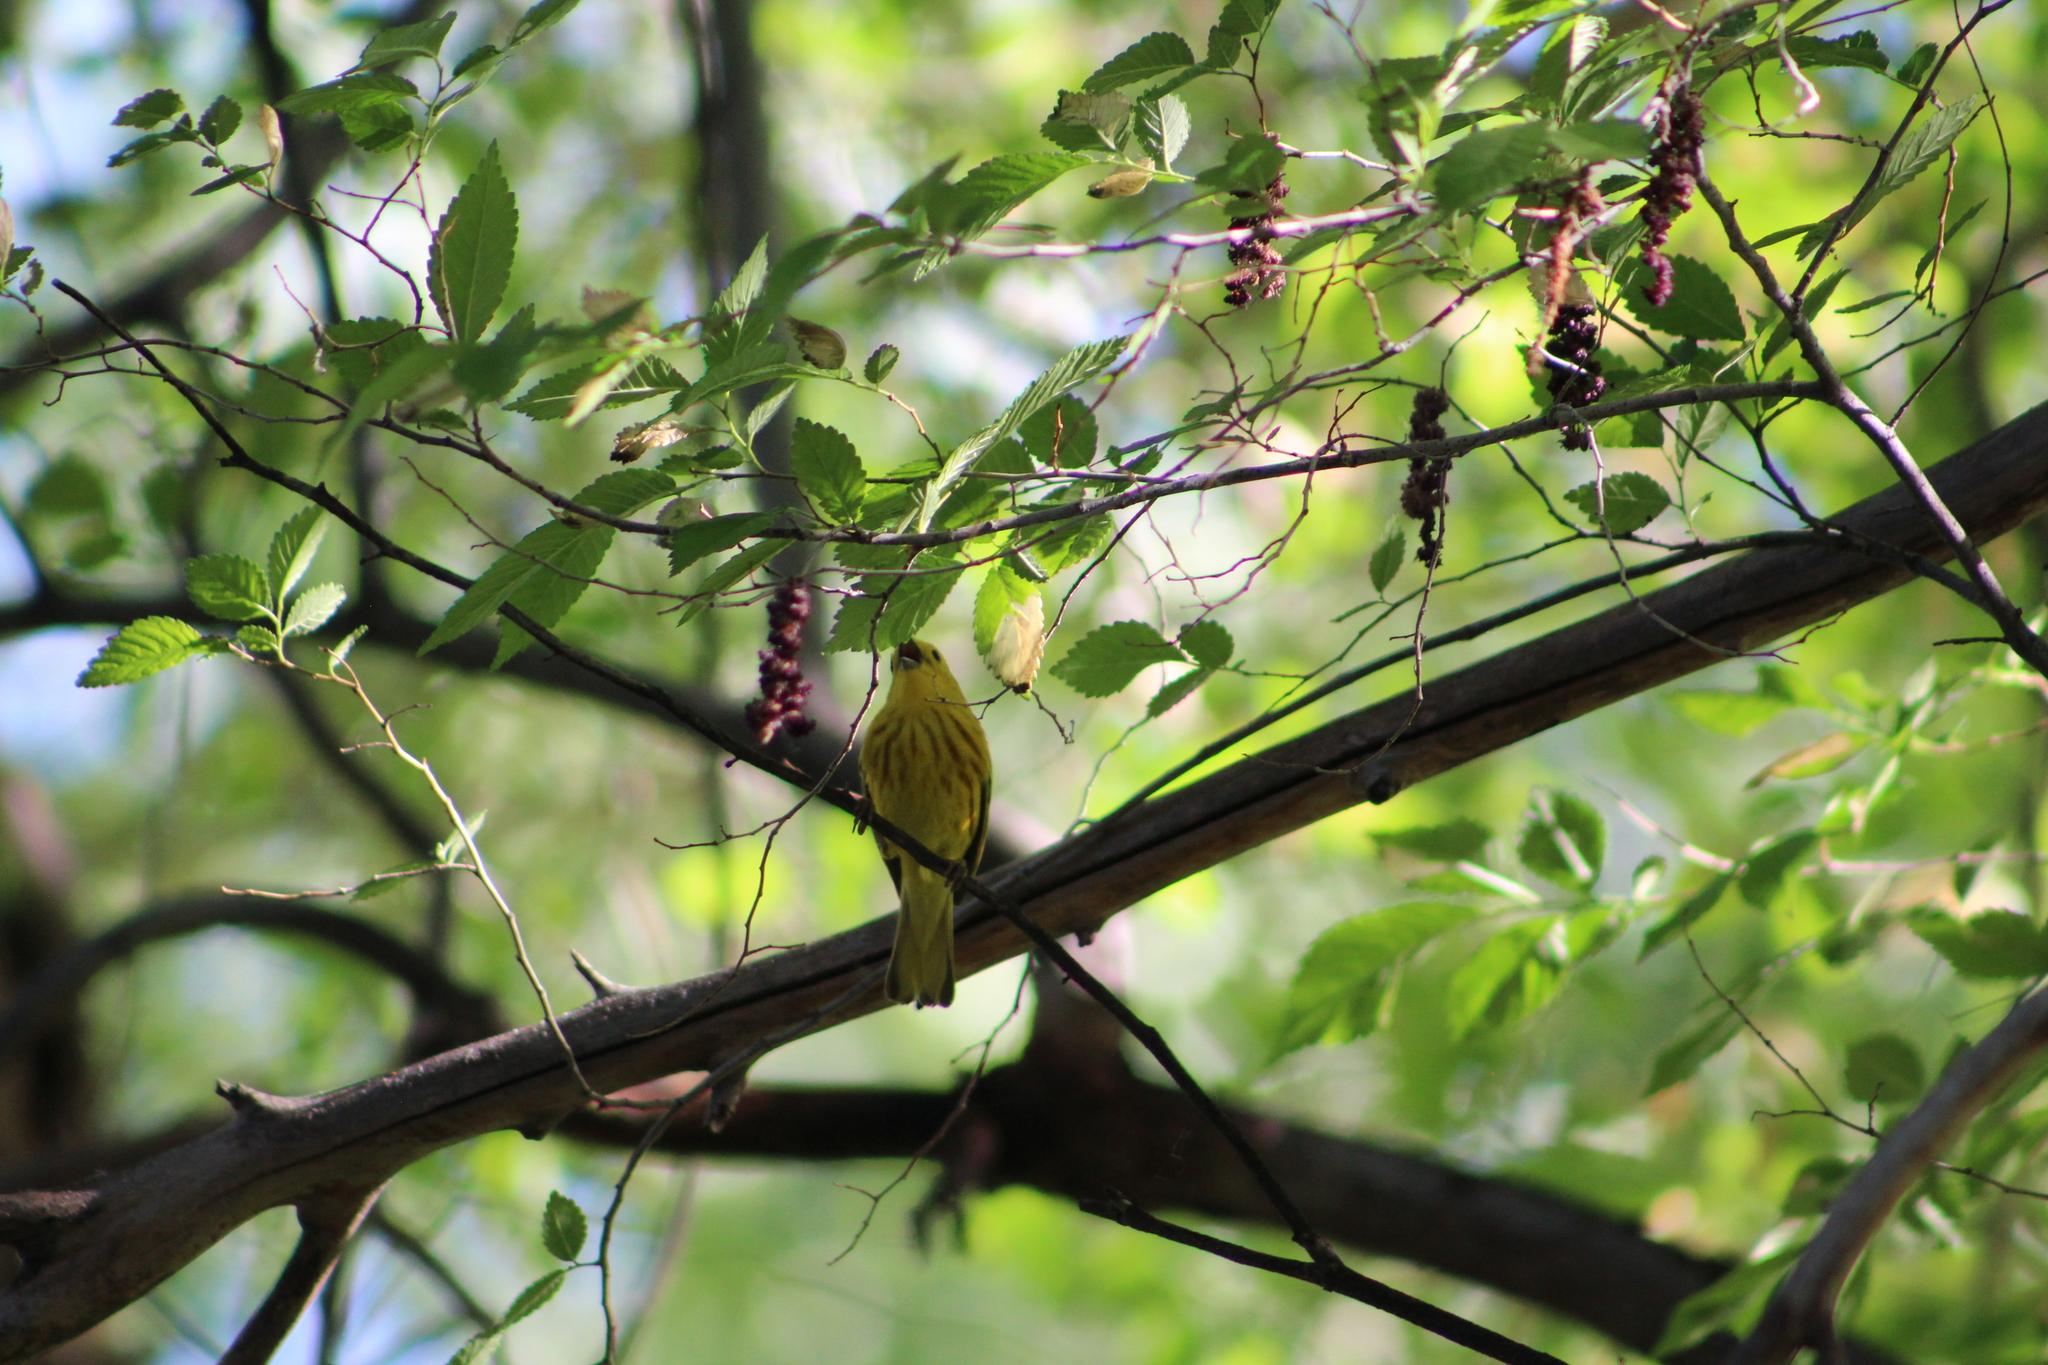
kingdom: Animalia
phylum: Chordata
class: Aves
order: Passeriformes
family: Parulidae
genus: Setophaga
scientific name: Setophaga petechia
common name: Yellow warbler
